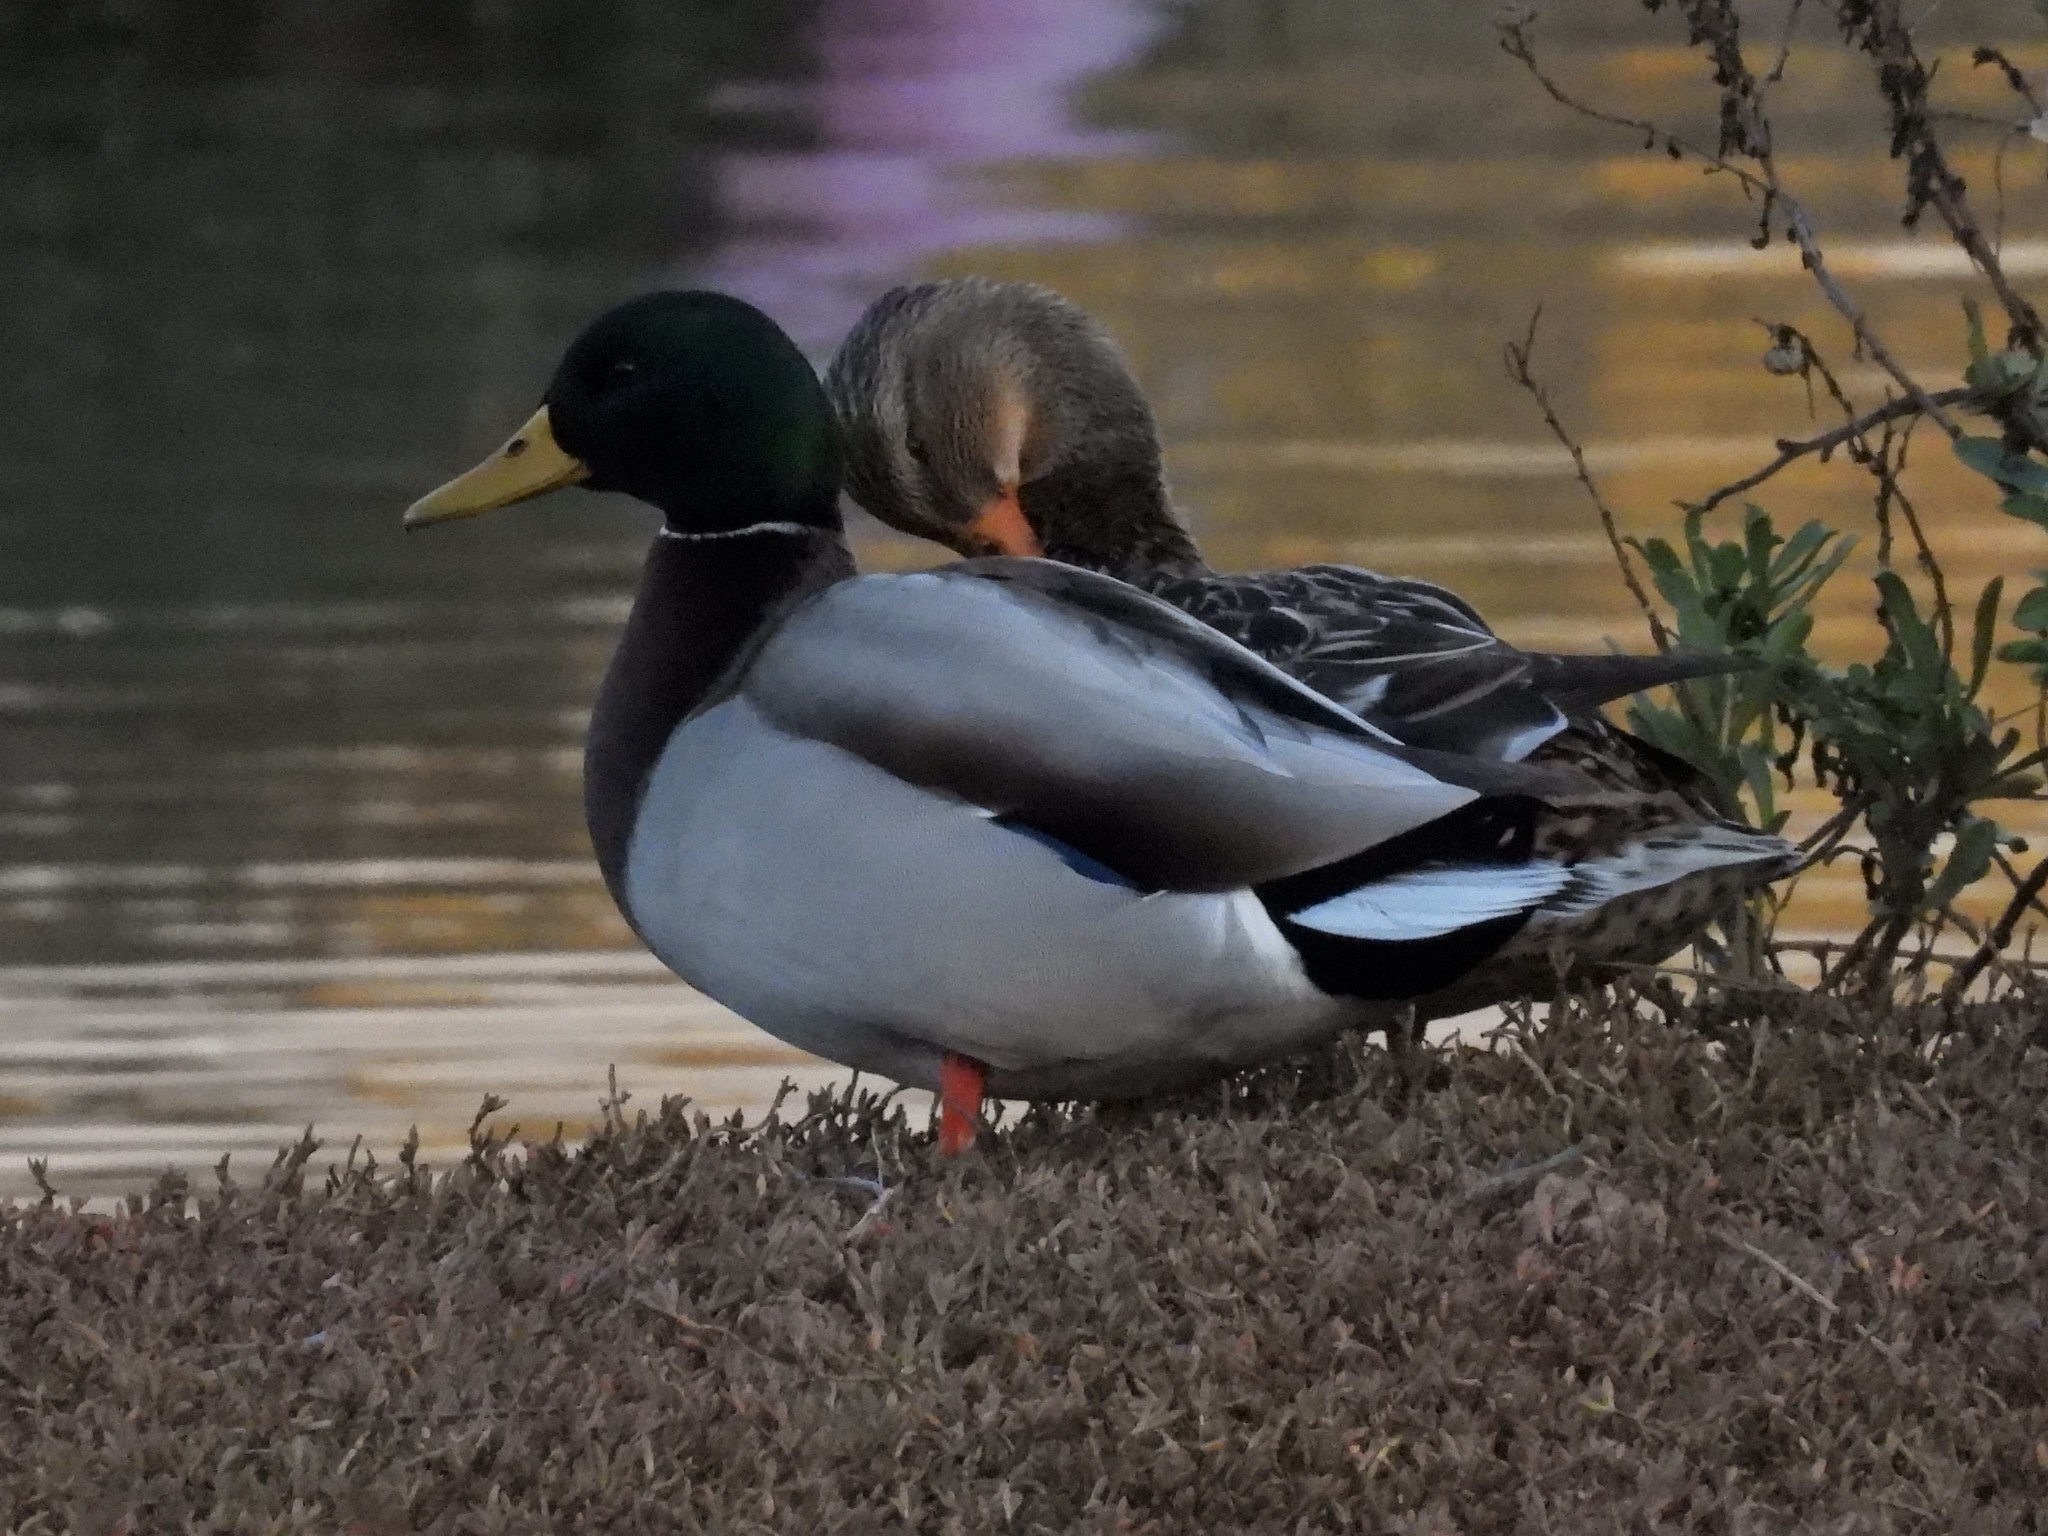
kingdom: Animalia
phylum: Chordata
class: Aves
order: Anseriformes
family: Anatidae
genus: Anas
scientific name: Anas platyrhynchos
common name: Mallard
